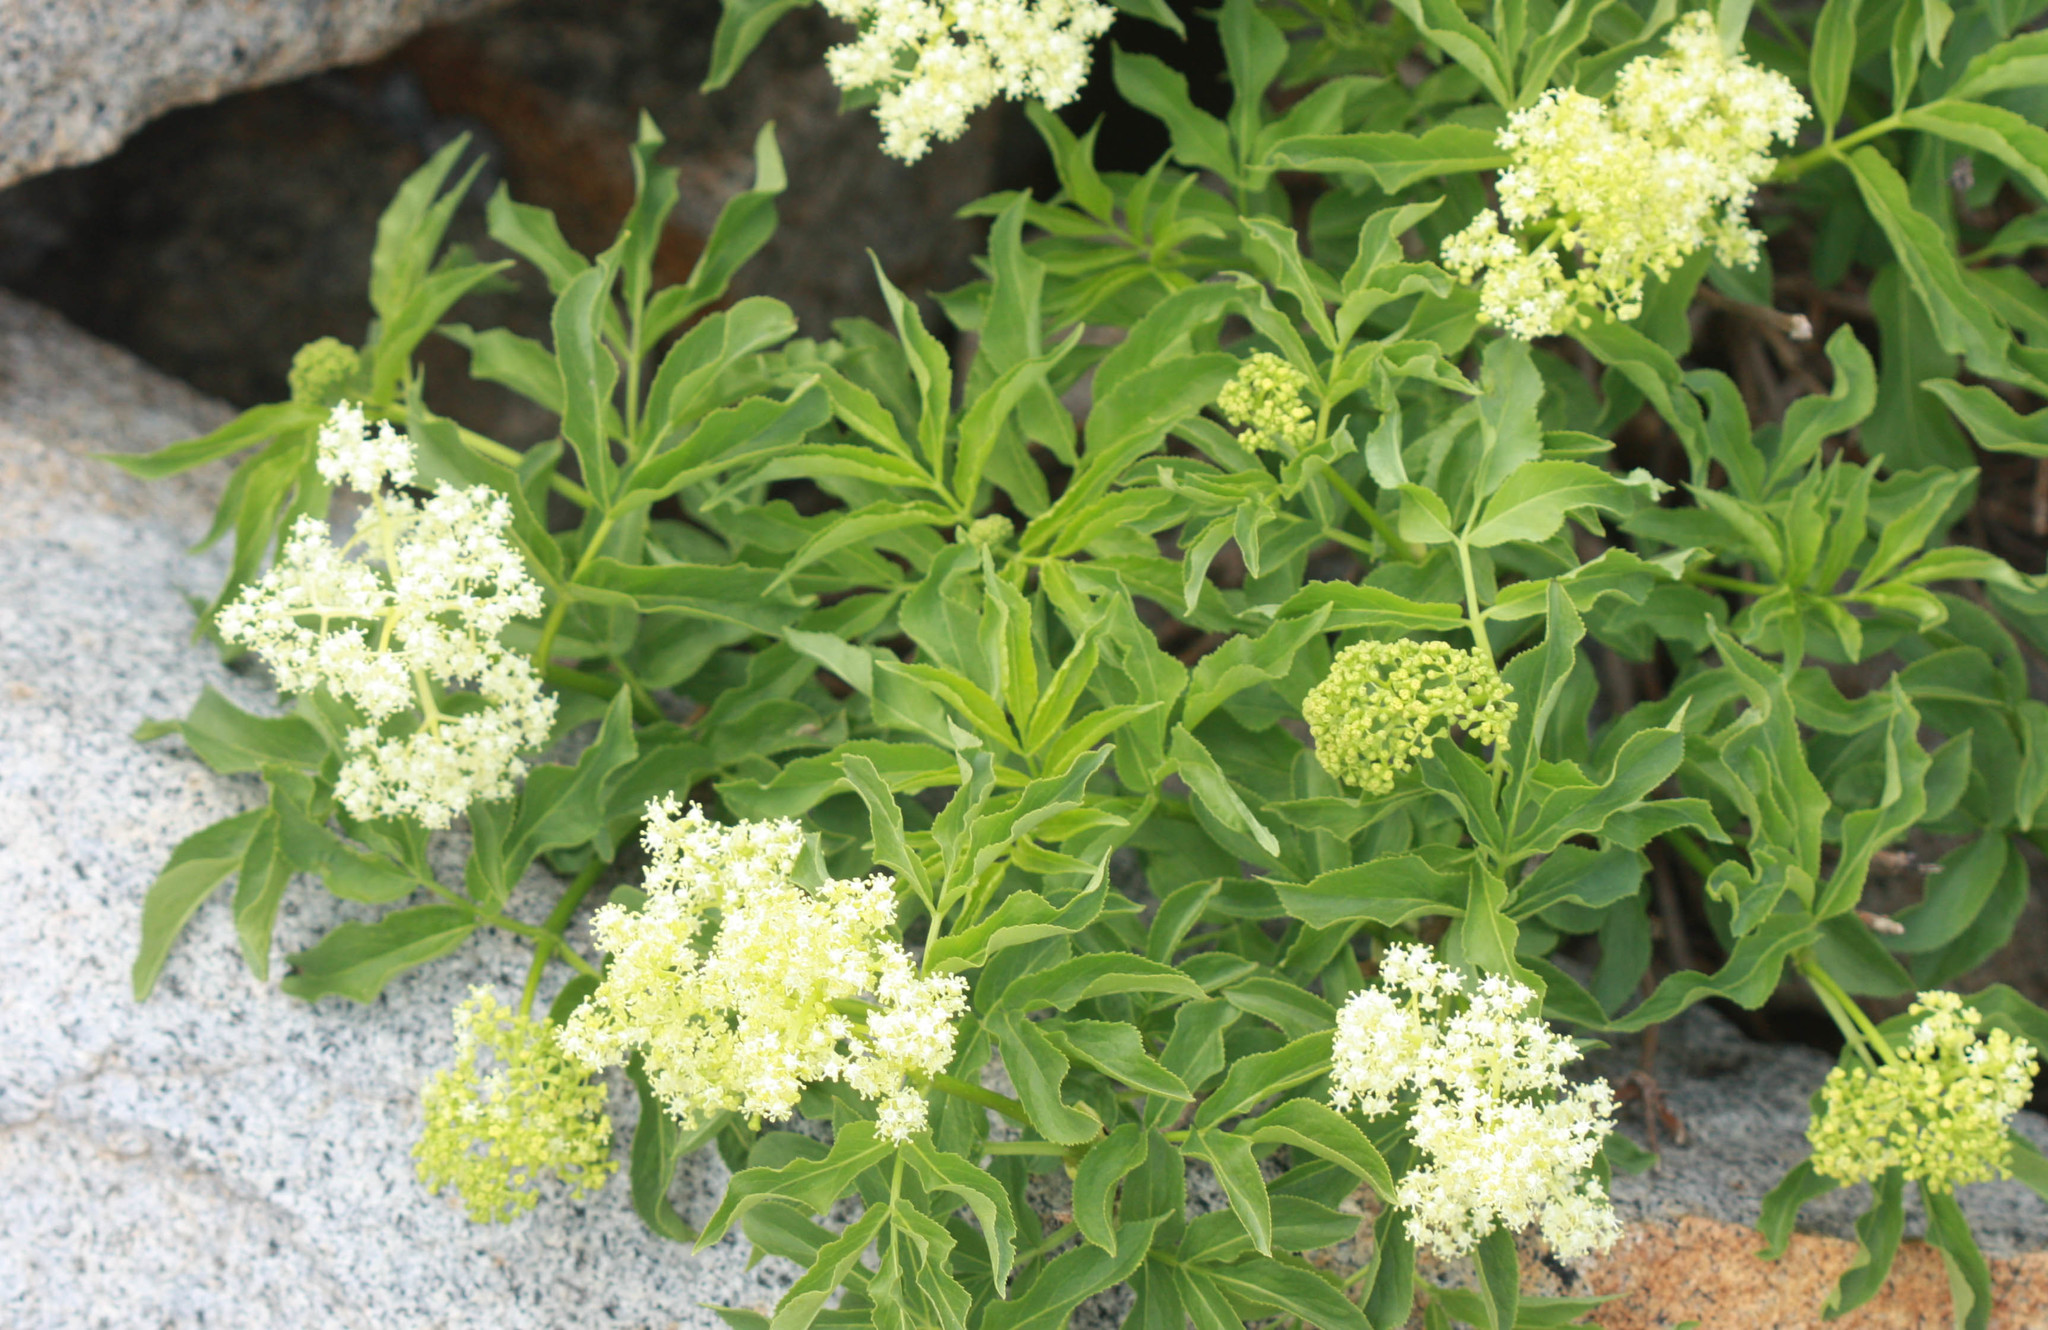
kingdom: Plantae
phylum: Tracheophyta
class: Magnoliopsida
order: Dipsacales
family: Viburnaceae
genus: Sambucus
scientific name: Sambucus racemosa
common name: Red-berried elder
